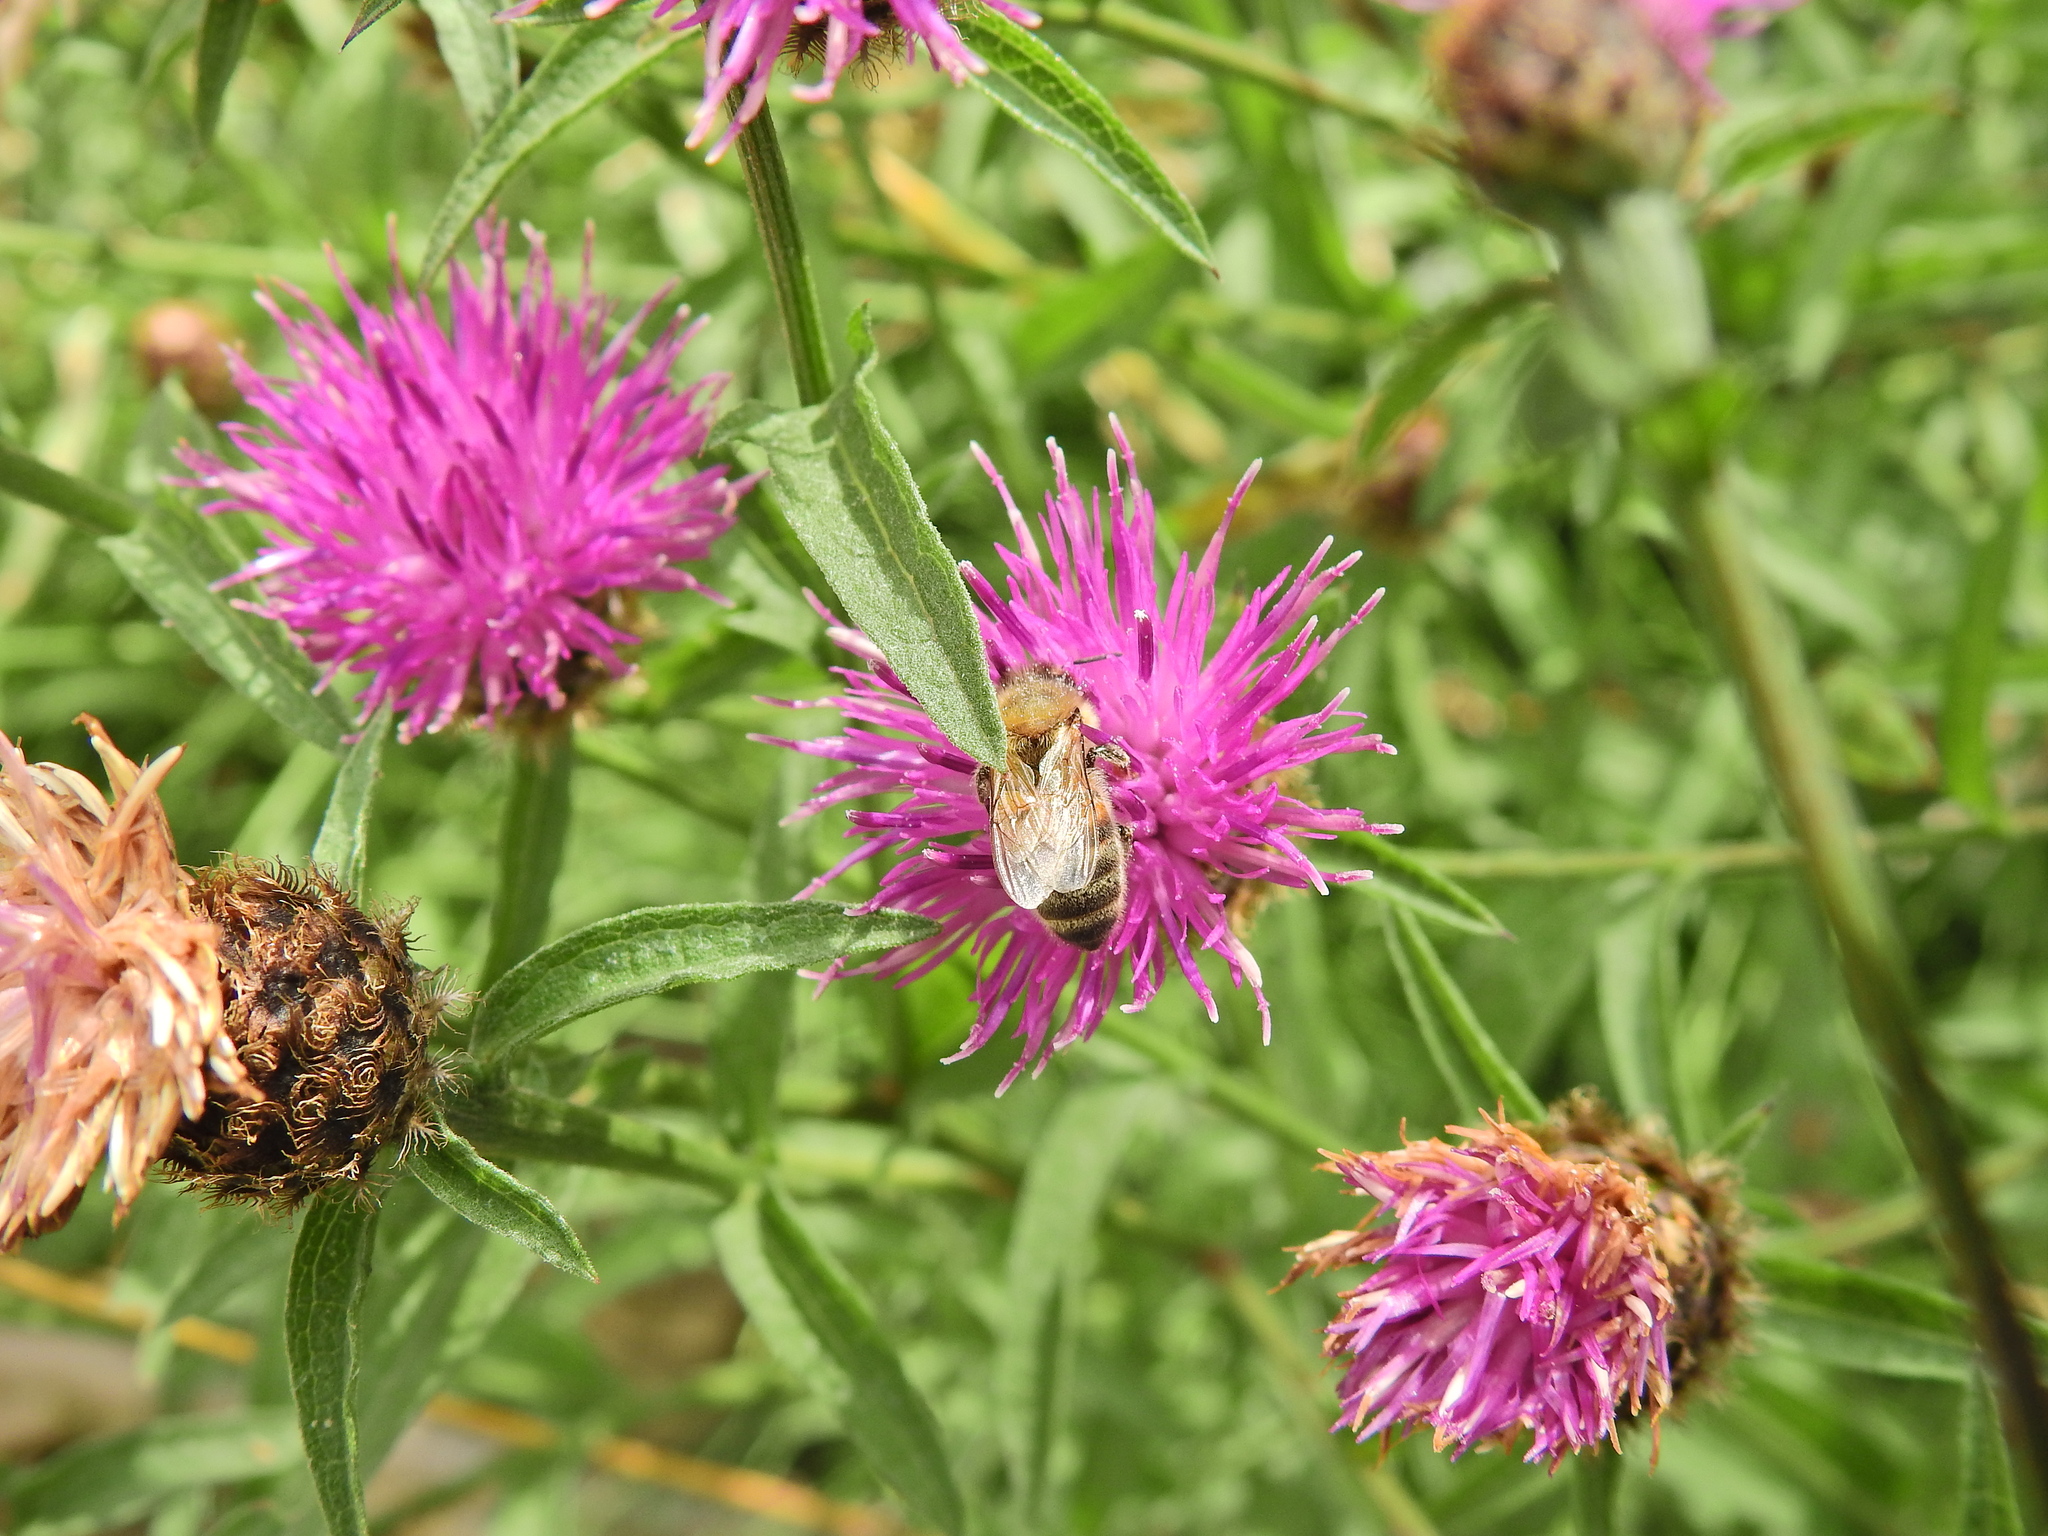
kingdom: Animalia
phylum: Arthropoda
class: Insecta
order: Hymenoptera
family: Apidae
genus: Apis
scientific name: Apis mellifera
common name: Honey bee
